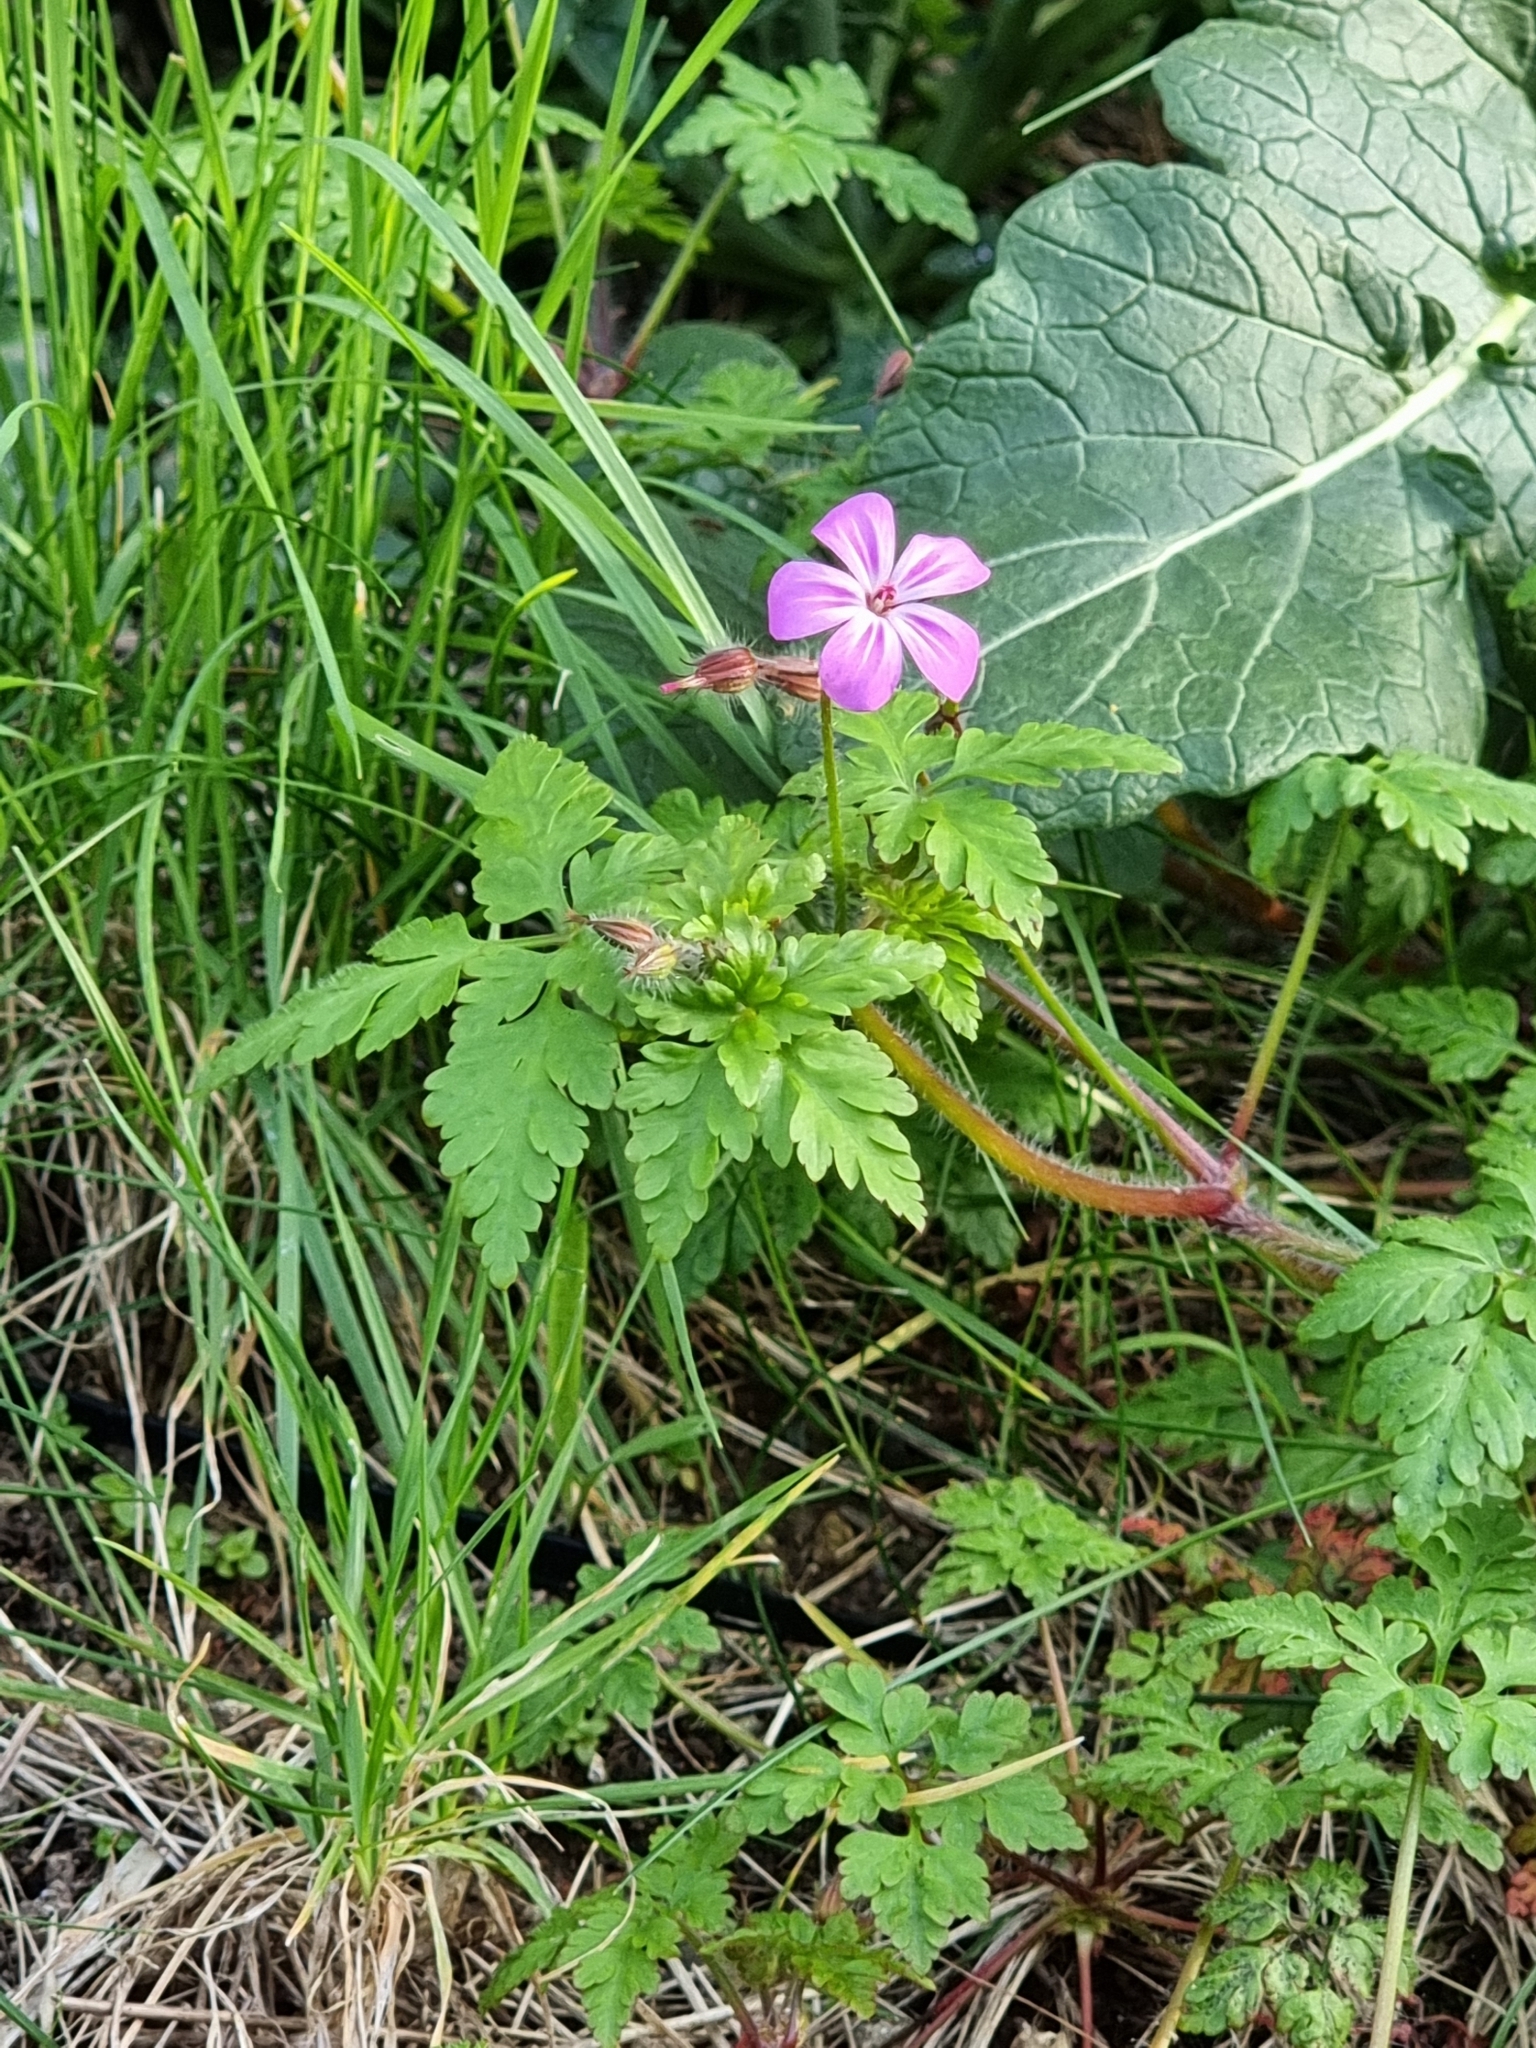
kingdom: Plantae
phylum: Tracheophyta
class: Magnoliopsida
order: Geraniales
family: Geraniaceae
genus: Geranium
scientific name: Geranium robertianum
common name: Herb-robert
